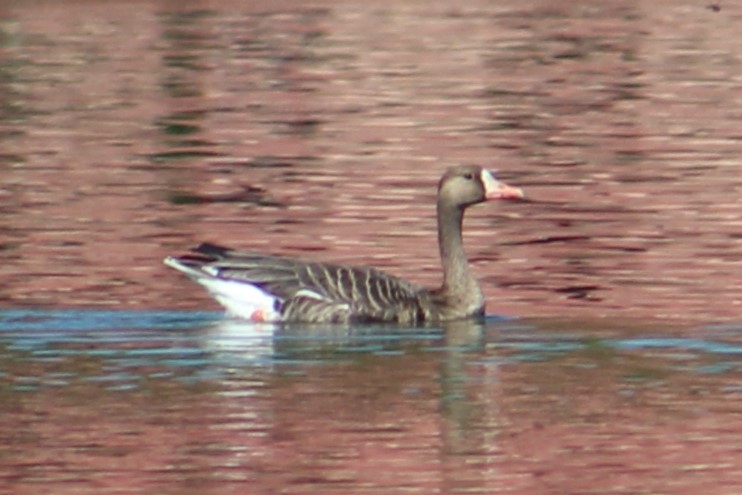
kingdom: Animalia
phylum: Chordata
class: Aves
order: Anseriformes
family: Anatidae
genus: Anser
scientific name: Anser albifrons
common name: Greater white-fronted goose
